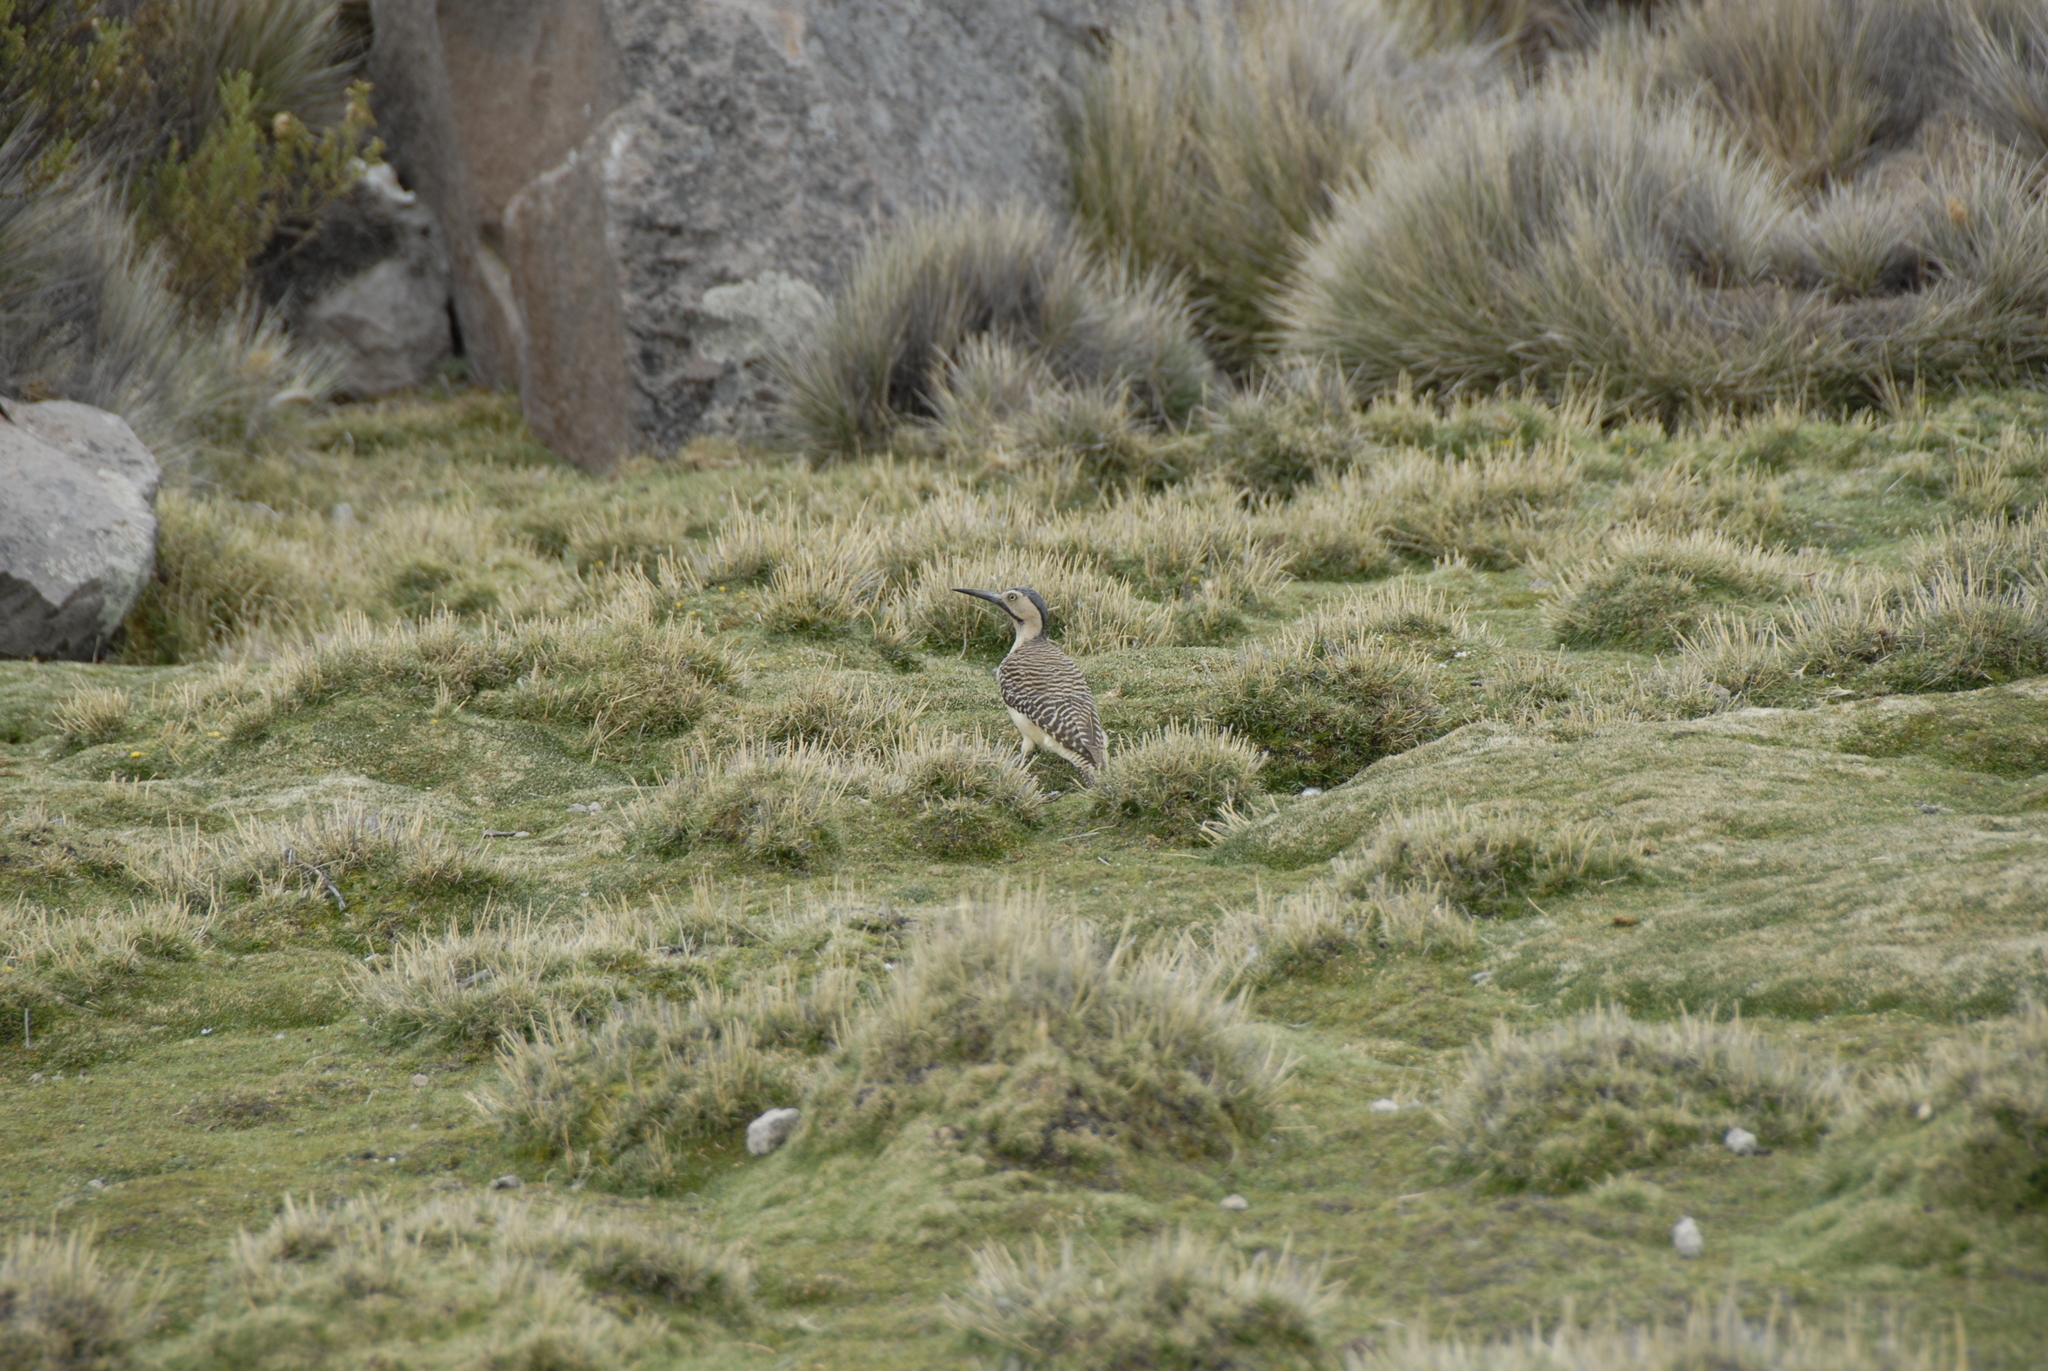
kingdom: Animalia
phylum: Chordata
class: Aves
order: Piciformes
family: Picidae
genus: Colaptes
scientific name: Colaptes rupicola
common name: Andean flicker
